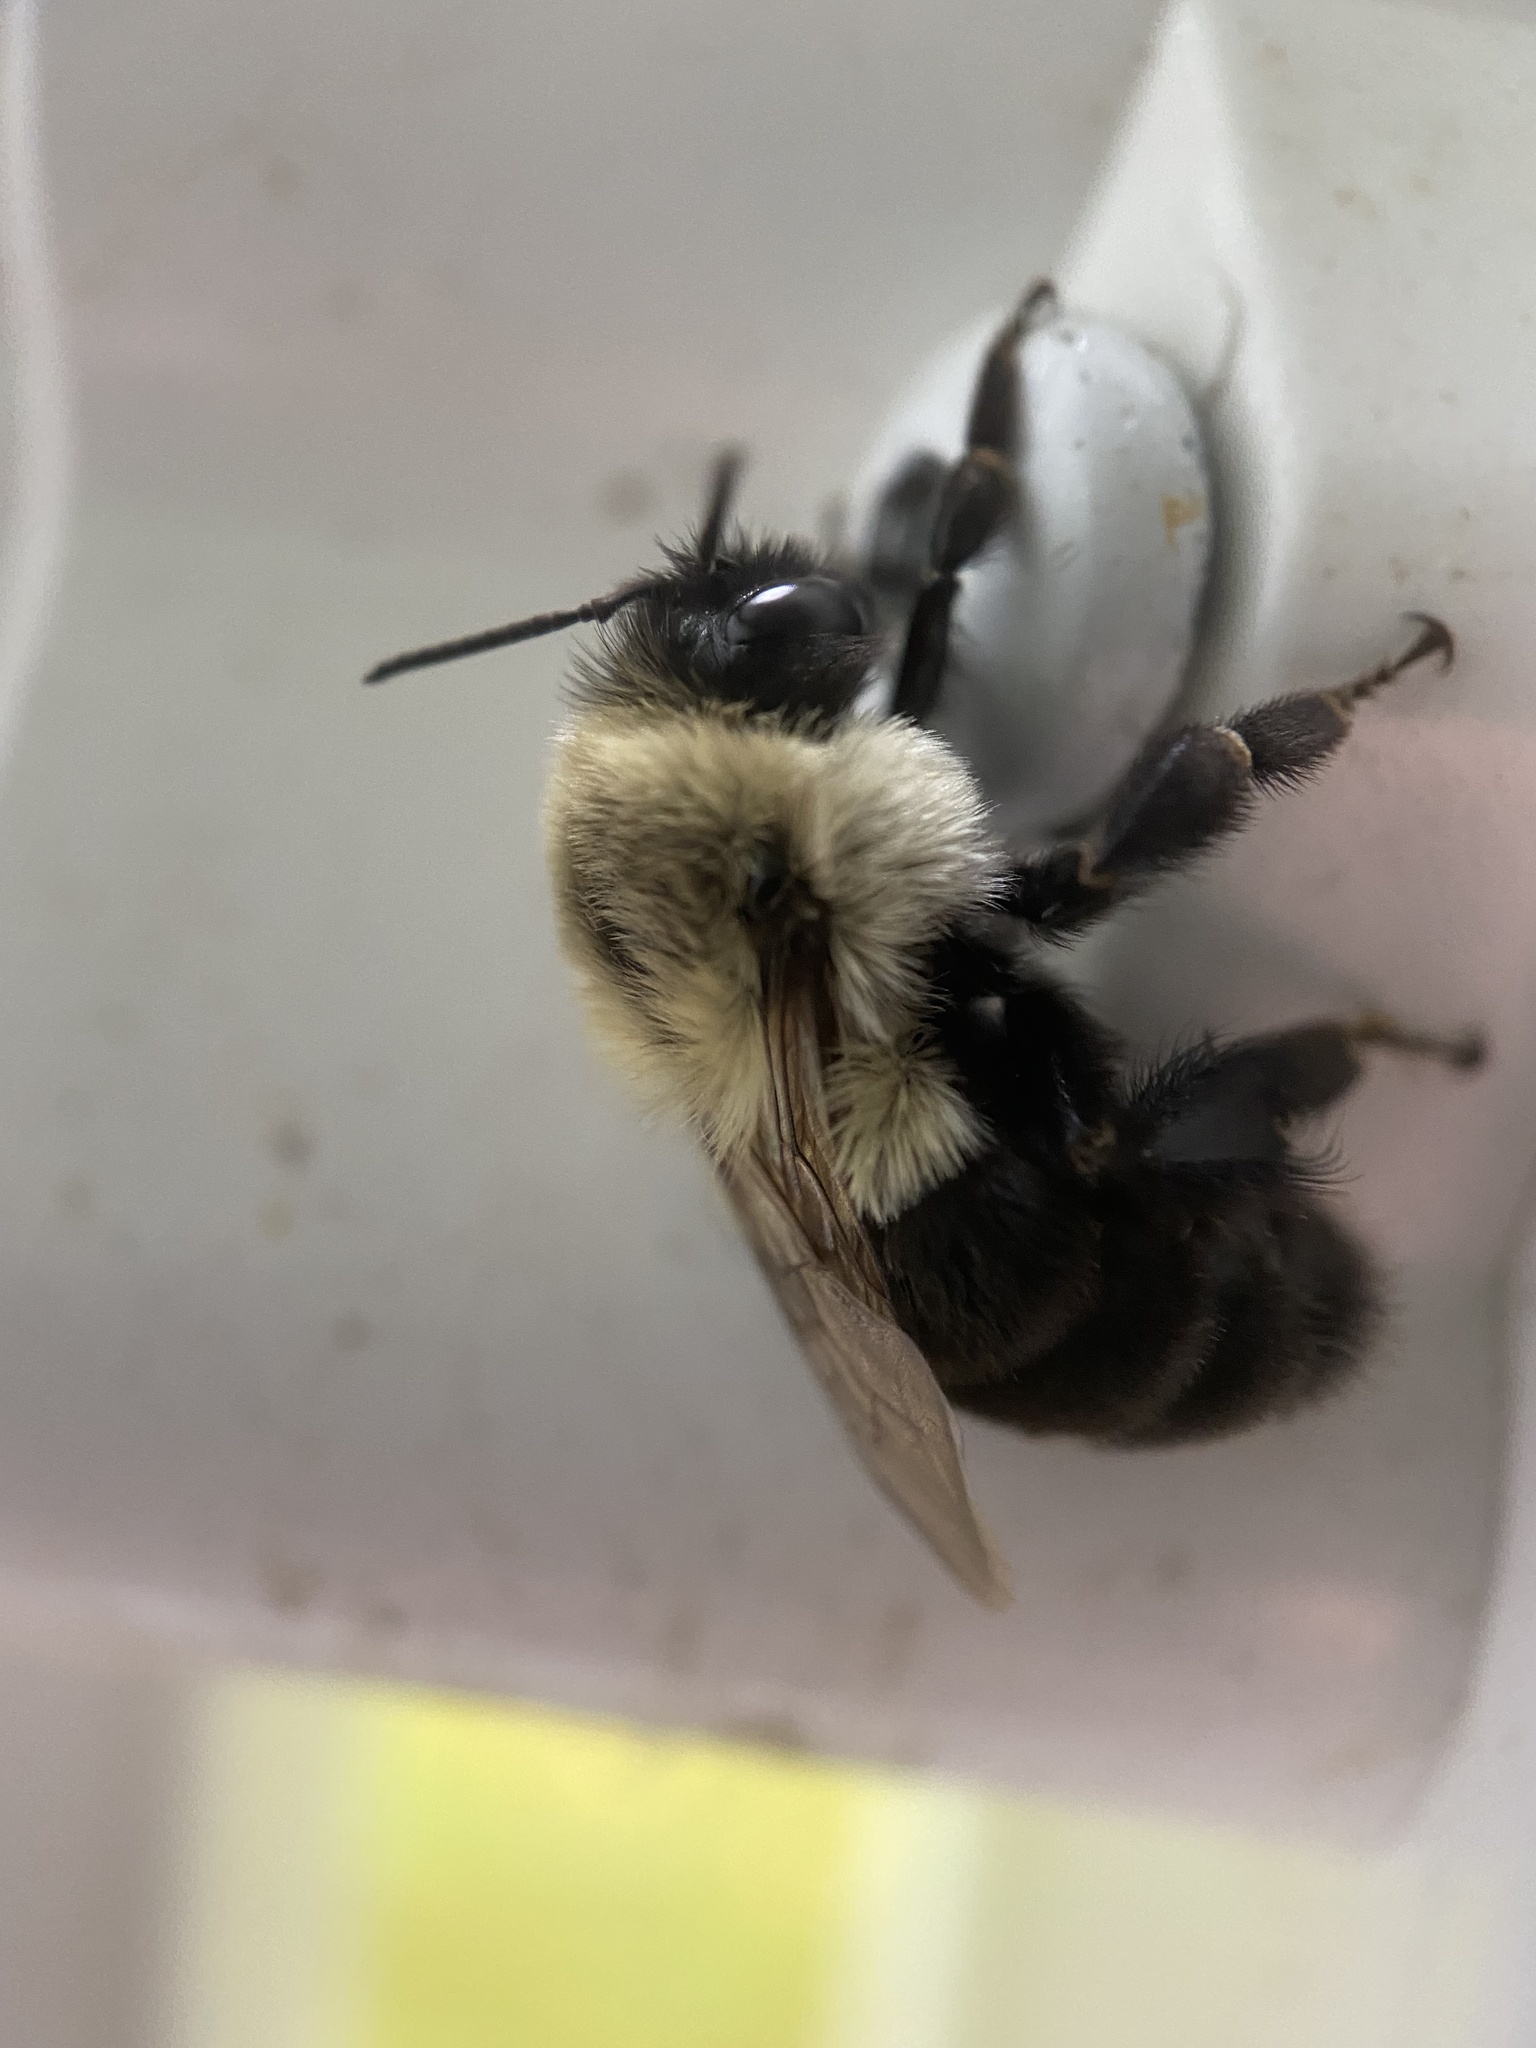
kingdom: Animalia
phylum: Arthropoda
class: Insecta
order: Hymenoptera
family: Apidae
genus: Bombus
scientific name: Bombus impatiens
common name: Common eastern bumble bee
